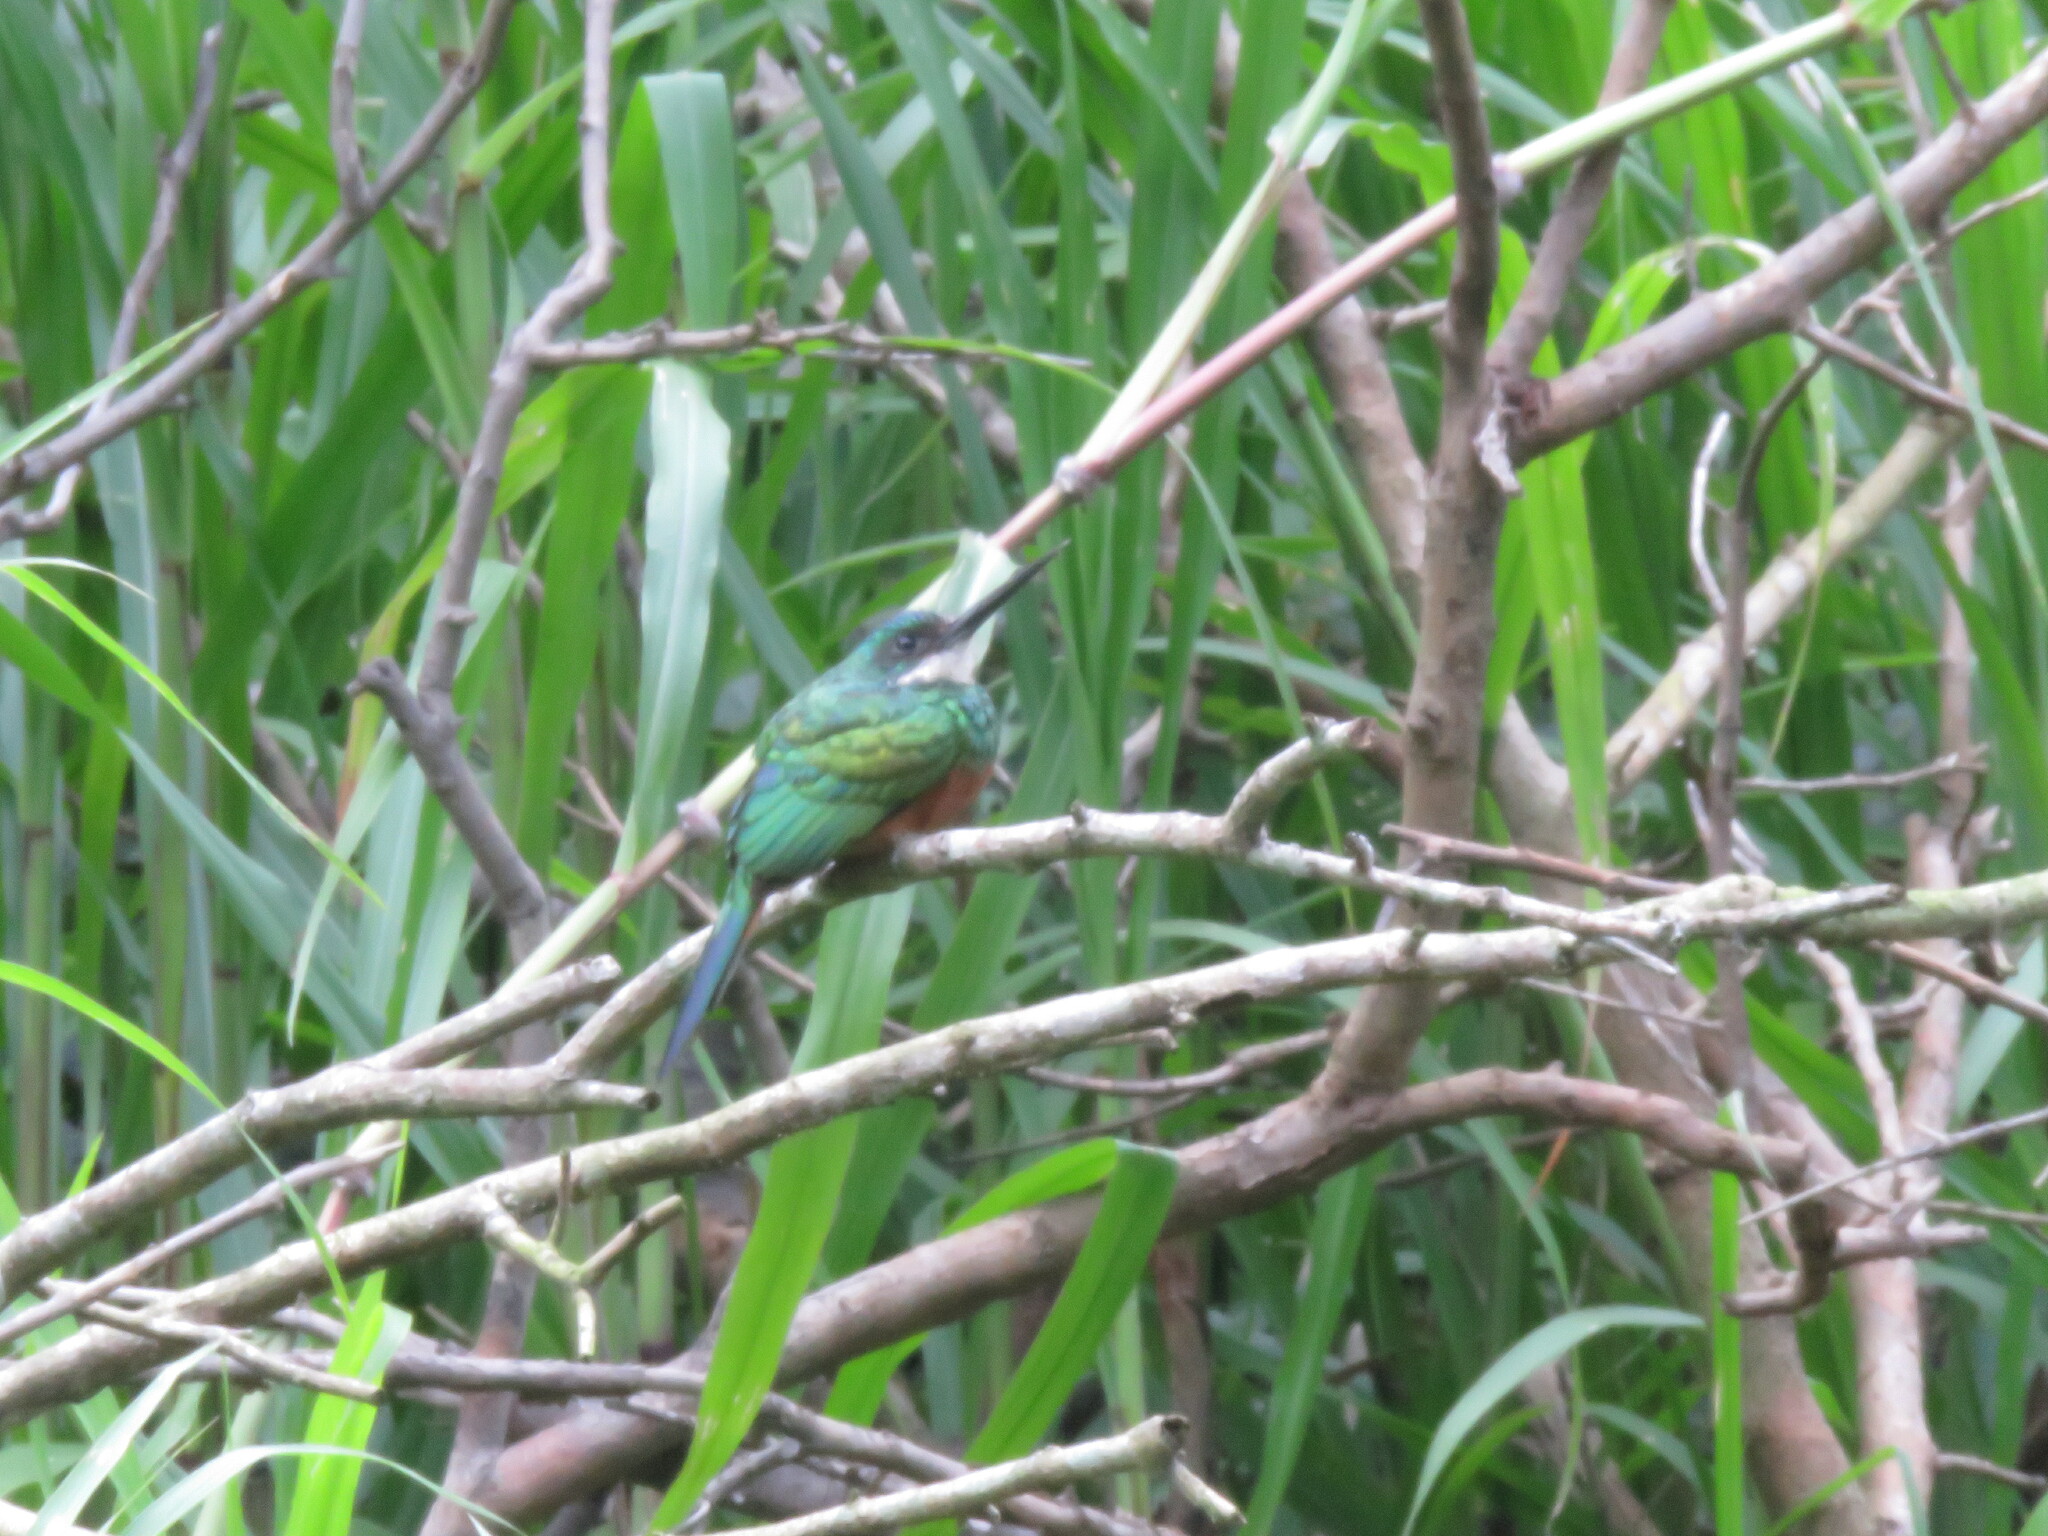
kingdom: Animalia
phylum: Chordata
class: Aves
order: Piciformes
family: Galbulidae
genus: Galbula
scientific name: Galbula ruficauda
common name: Rufous-tailed jacamar
